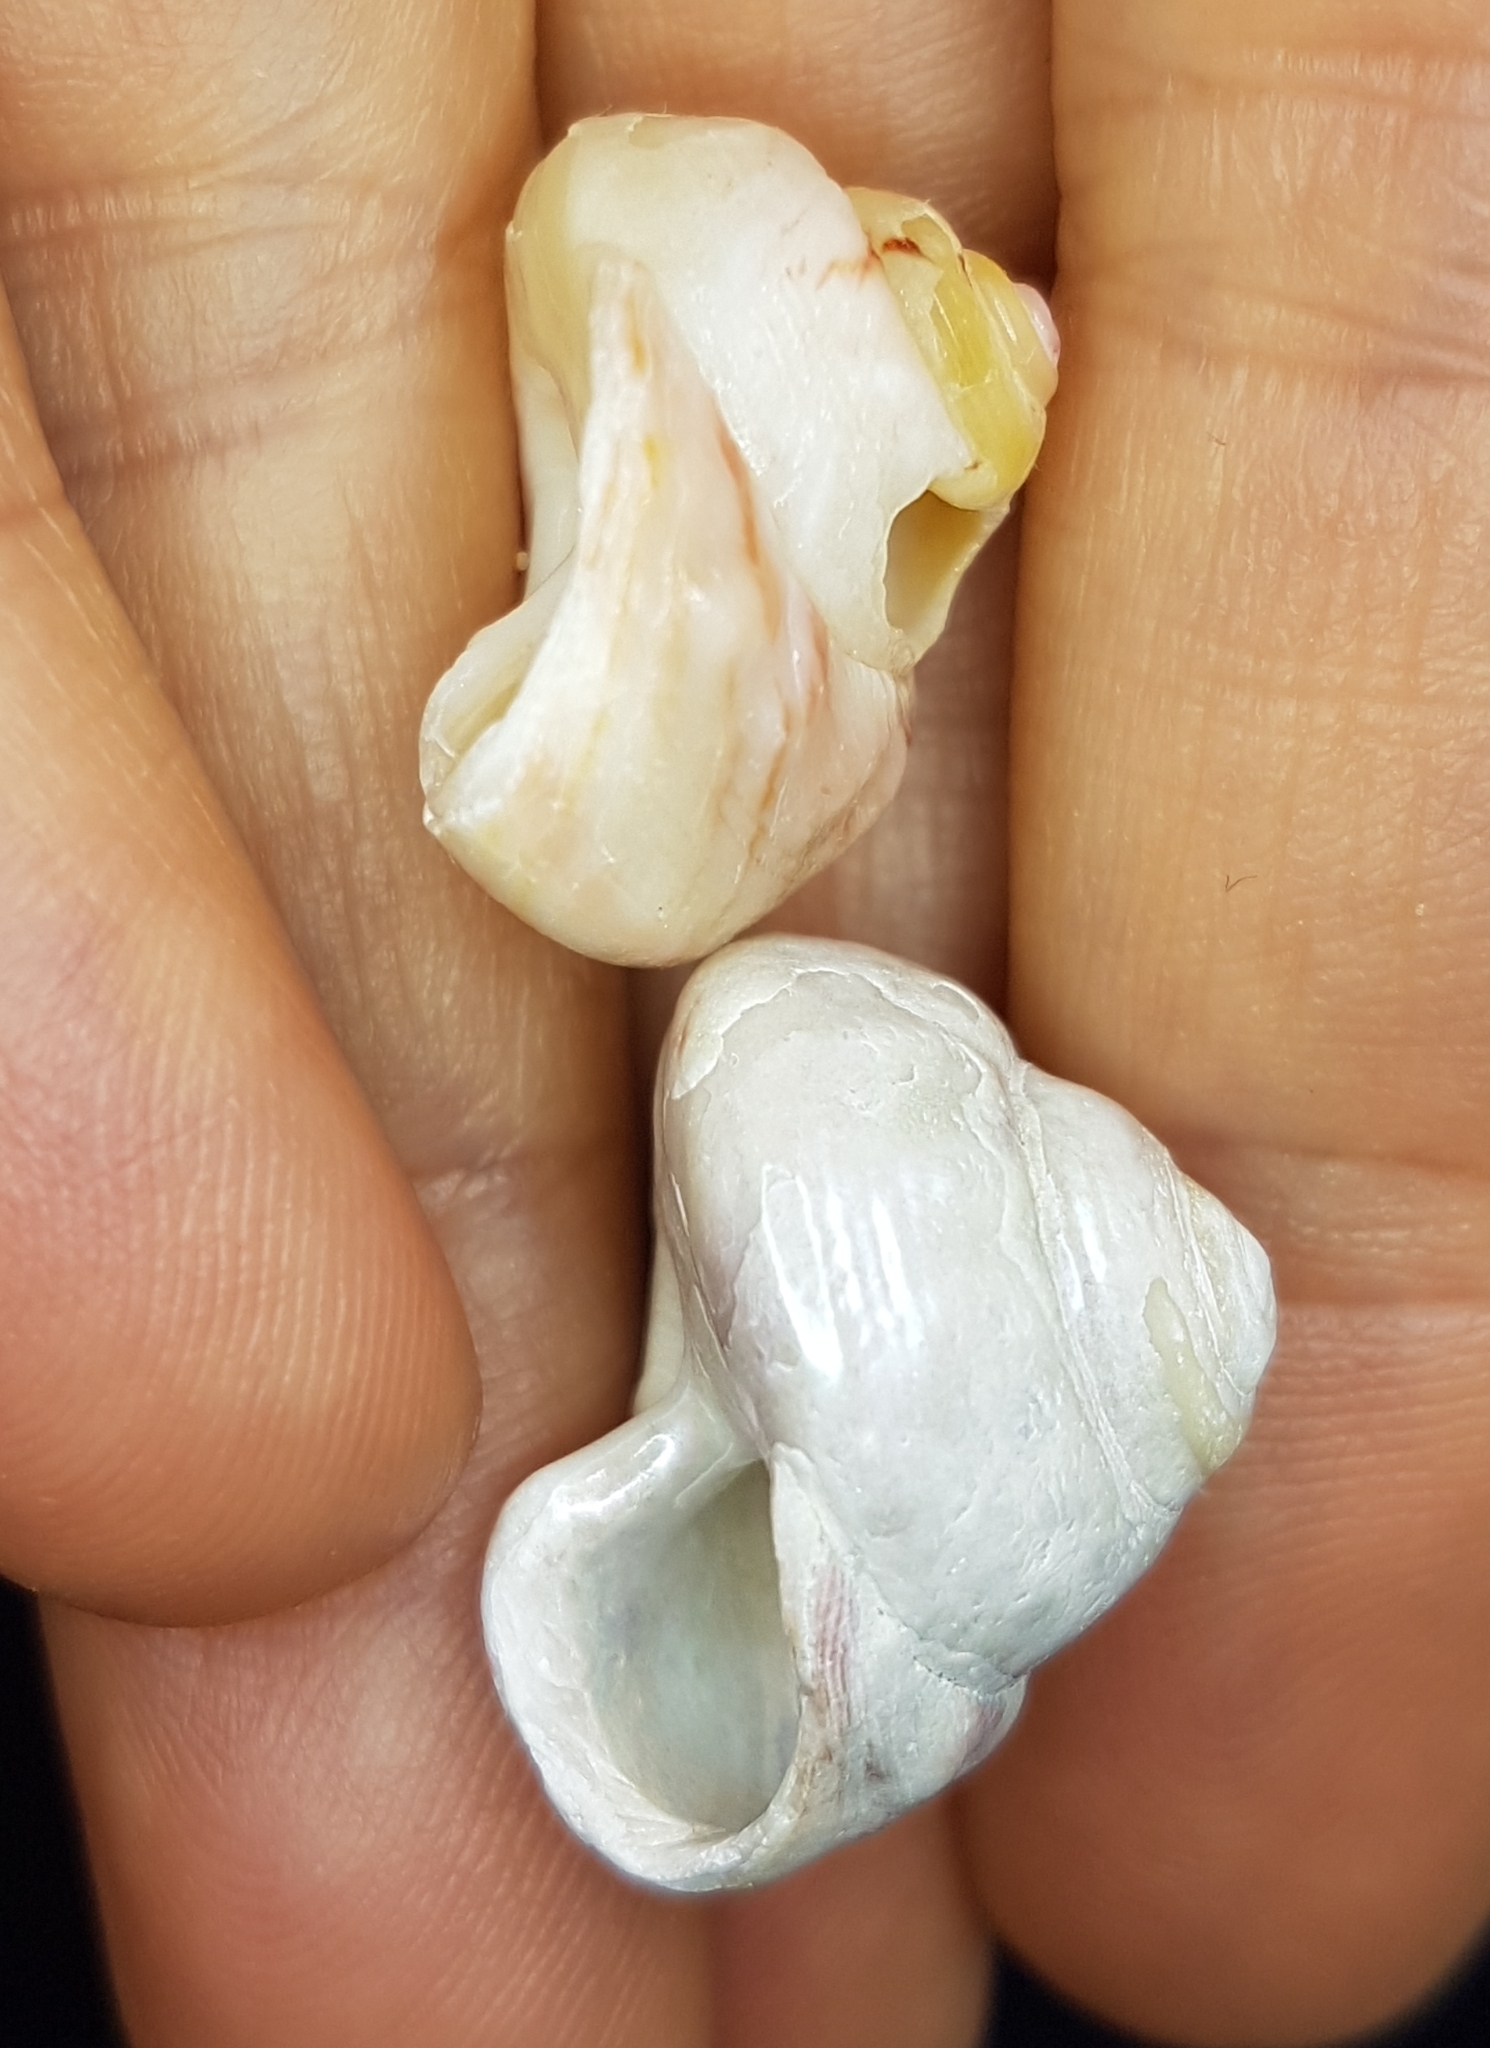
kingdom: Animalia
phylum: Mollusca
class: Gastropoda
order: Trochida
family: Trochidae
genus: Gibbula
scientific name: Gibbula magus
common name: Turban top shell
